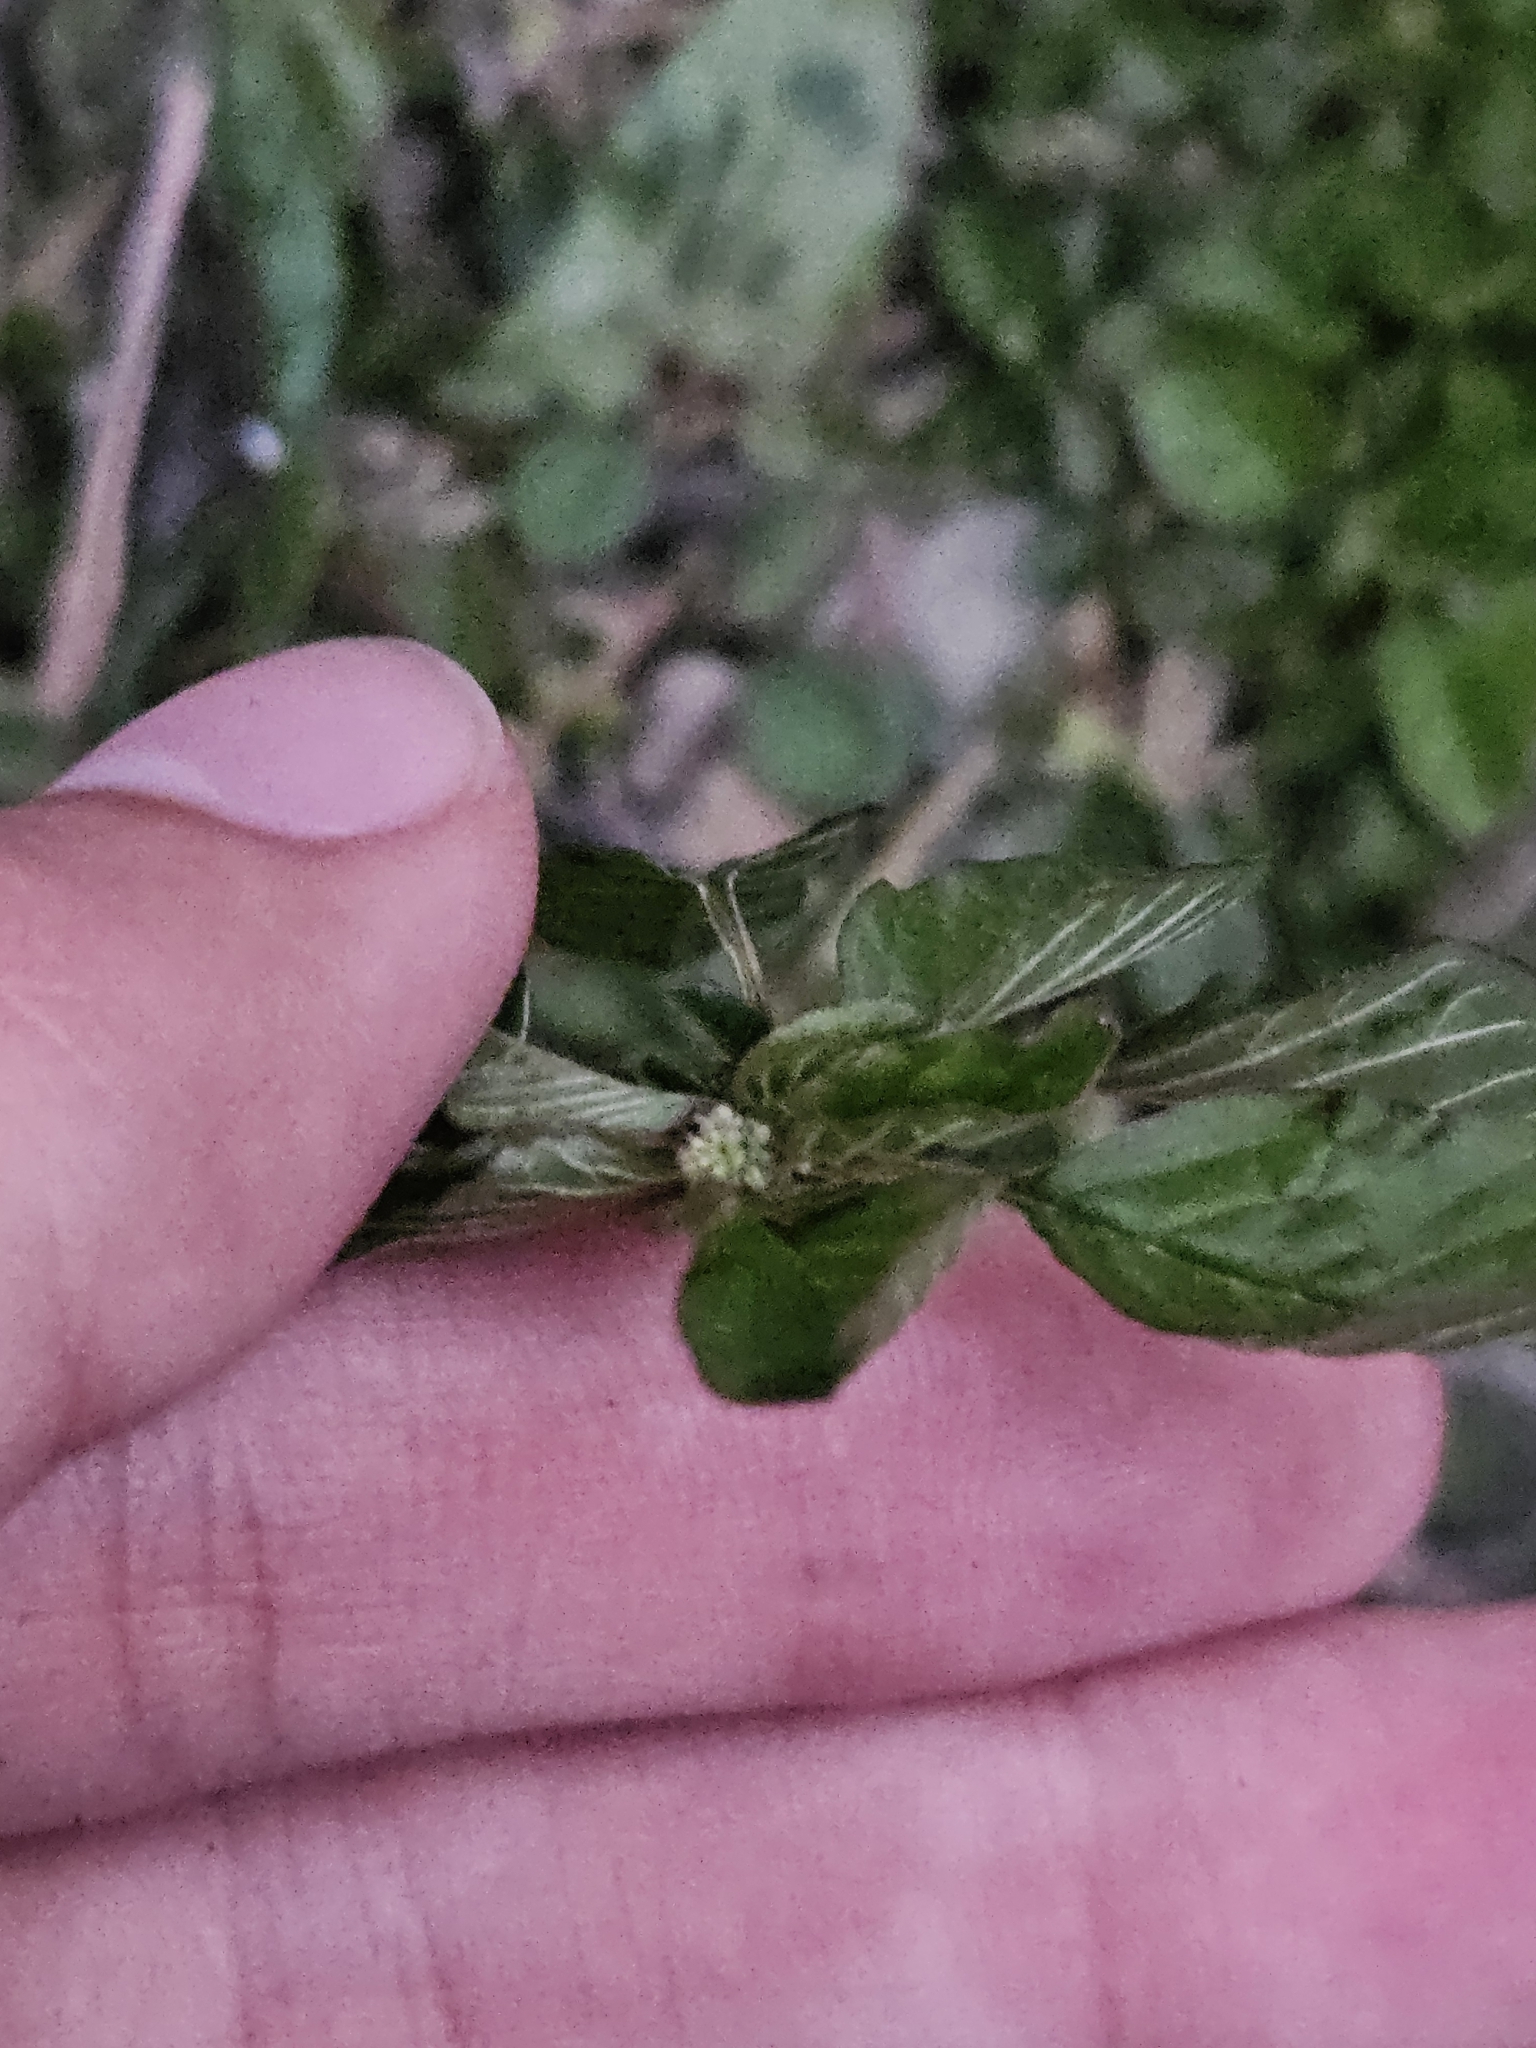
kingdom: Plantae
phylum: Tracheophyta
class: Magnoliopsida
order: Caryophyllales
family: Amaranthaceae
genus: Amaranthus
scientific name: Amaranthus blitum
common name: Purple amaranth
